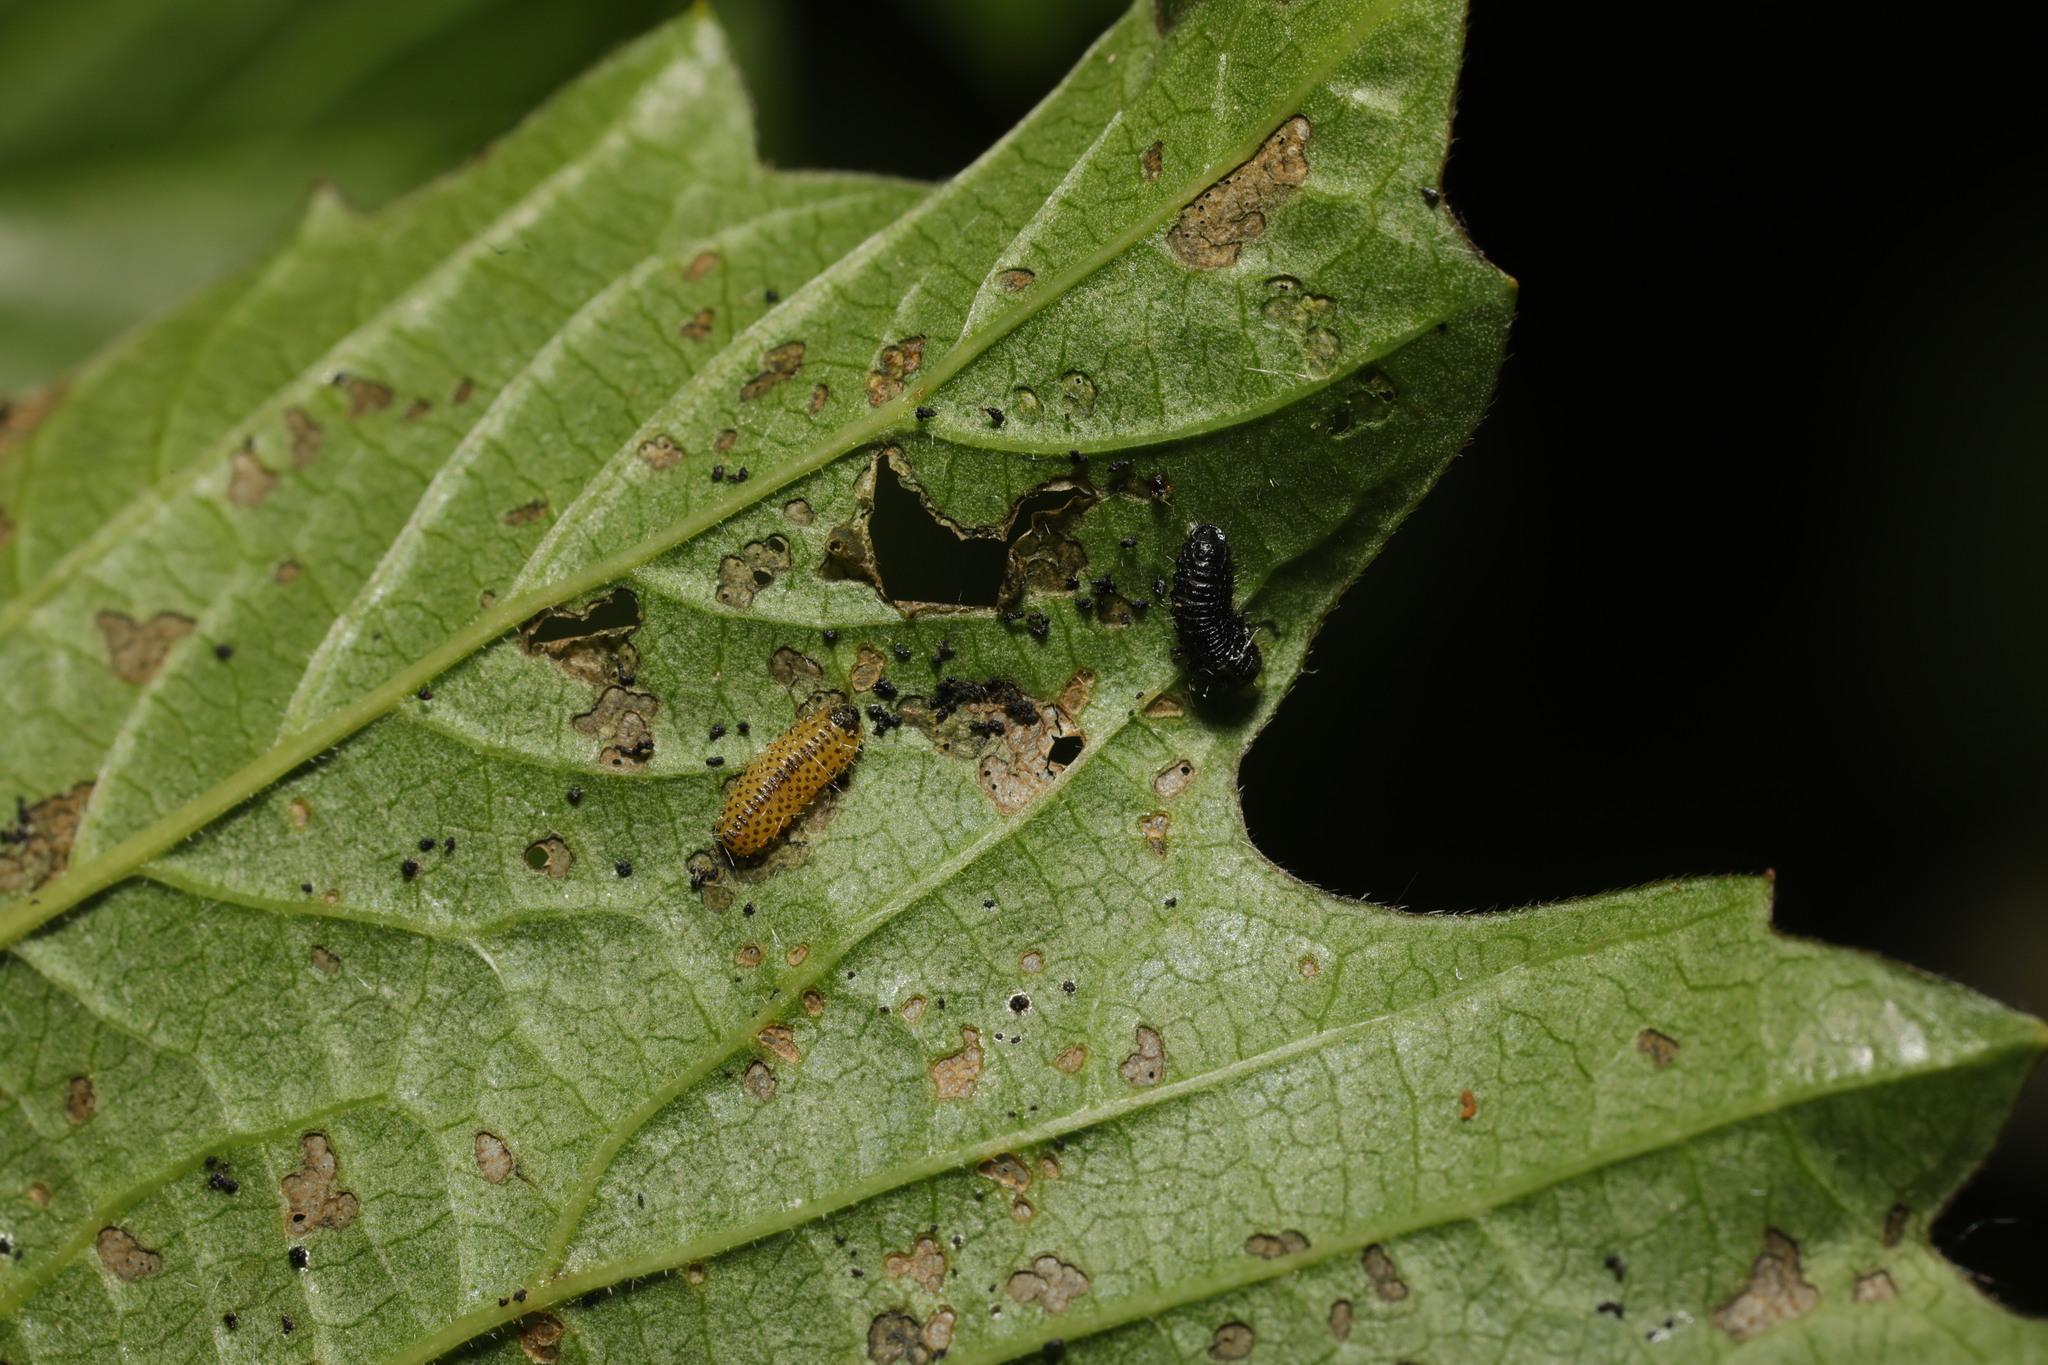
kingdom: Animalia
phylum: Arthropoda
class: Insecta
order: Coleoptera
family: Chrysomelidae
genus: Pyrrhalta
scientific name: Pyrrhalta viburni
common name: Guelder-rose leaf beetle
